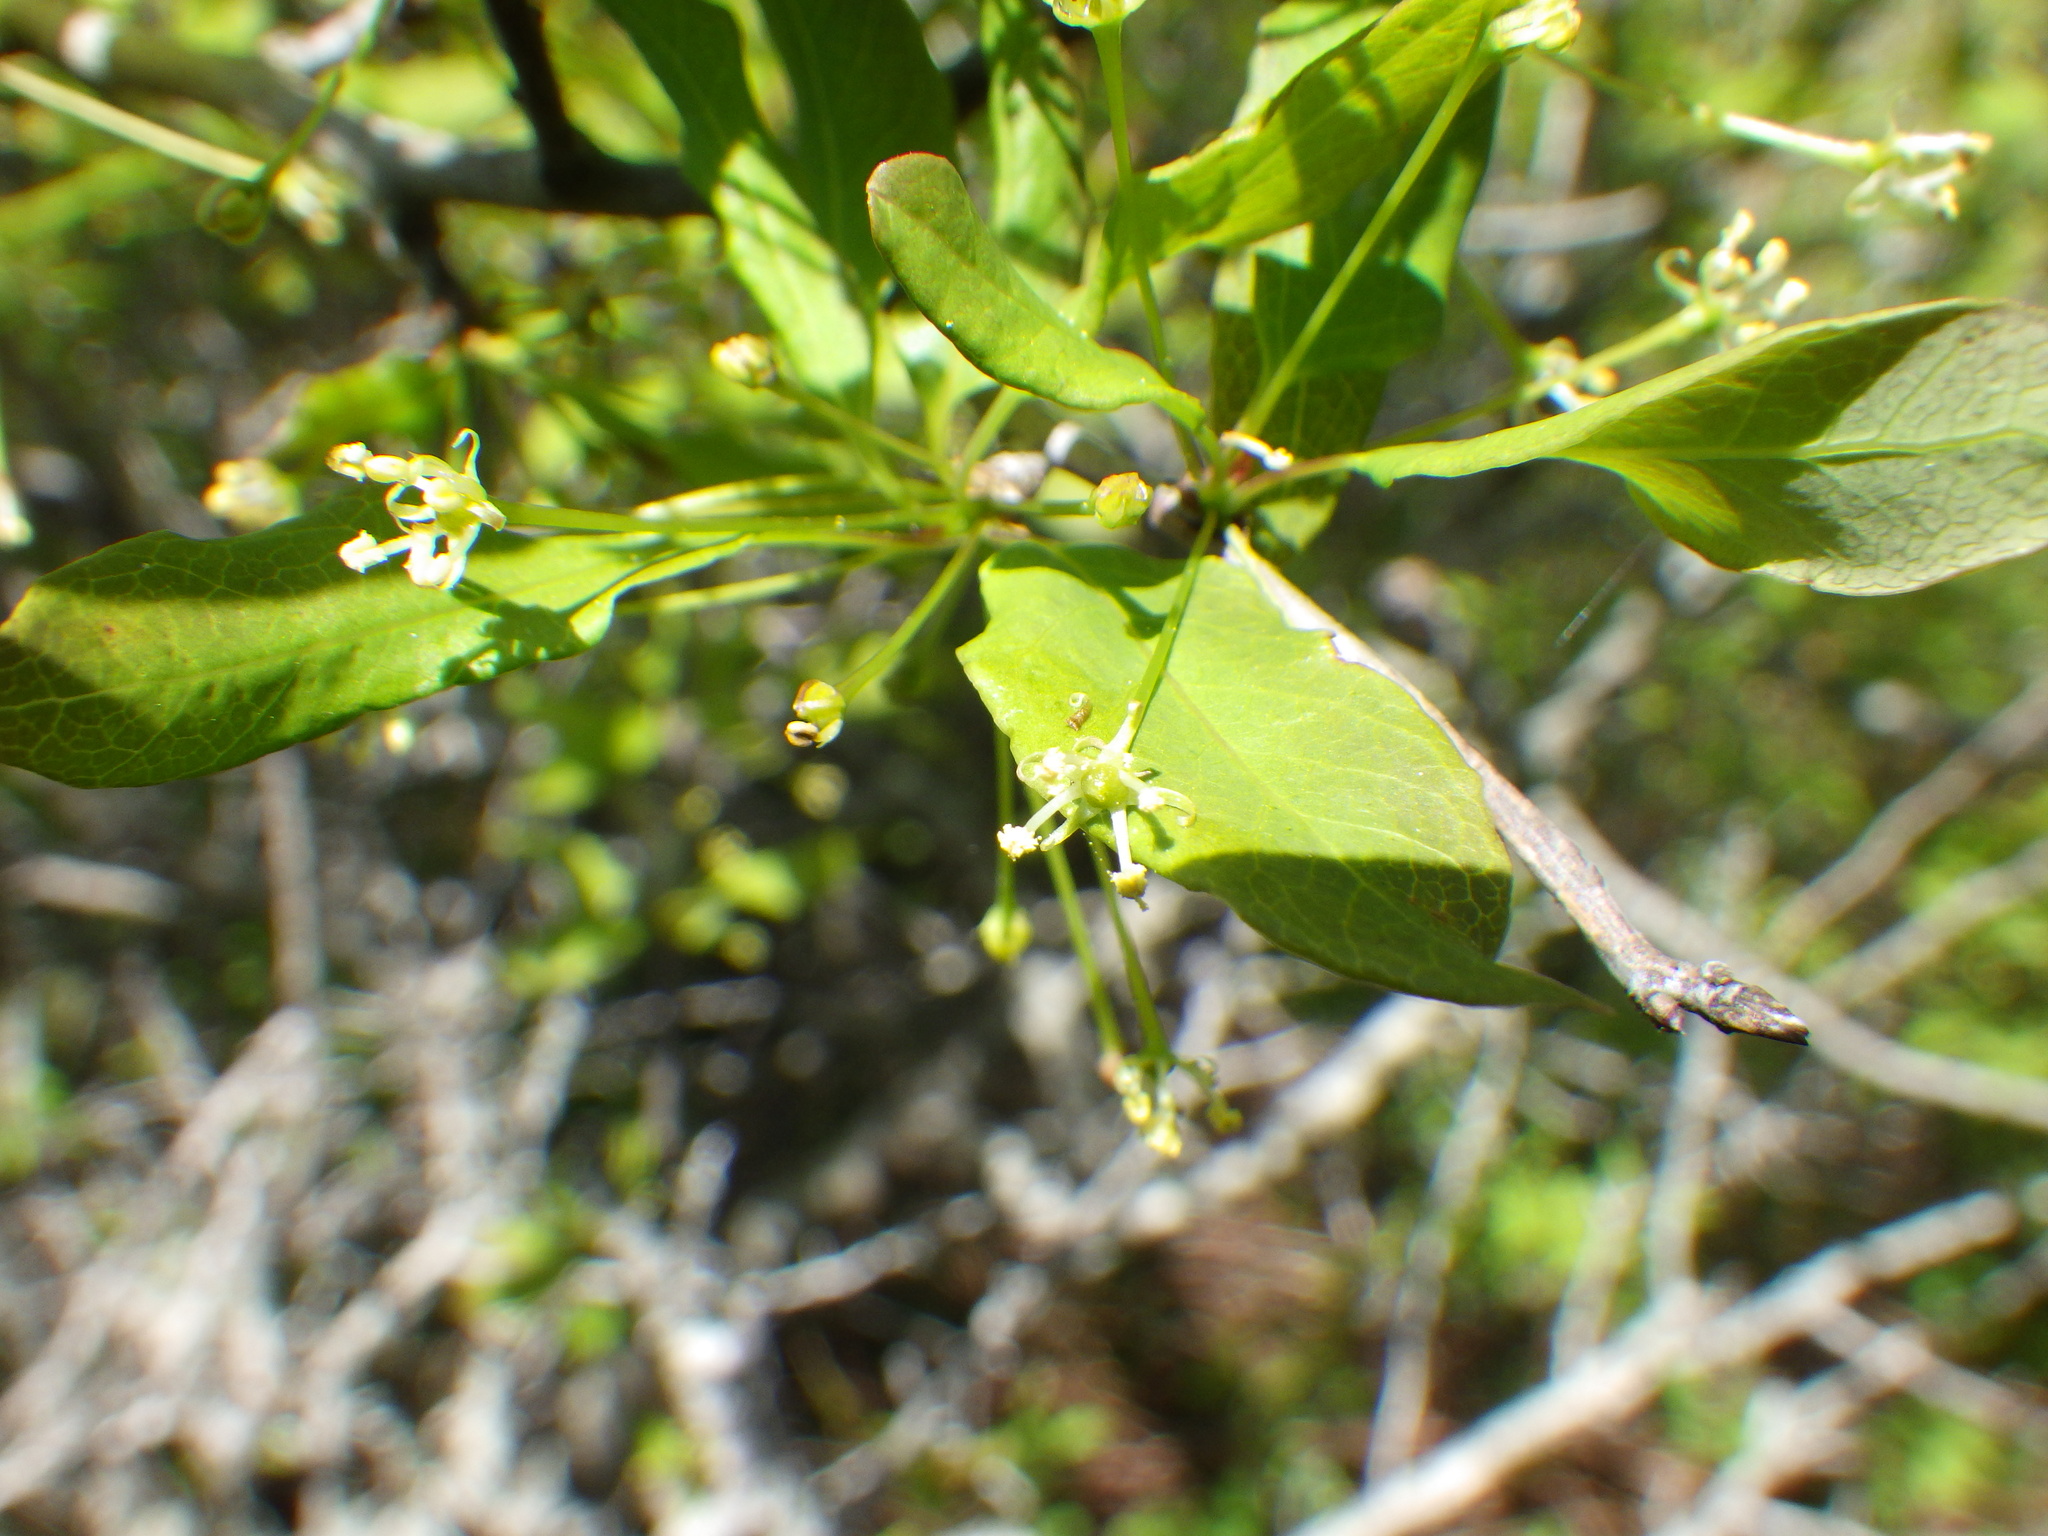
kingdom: Plantae
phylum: Tracheophyta
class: Magnoliopsida
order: Aquifoliales
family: Aquifoliaceae
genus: Ilex
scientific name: Ilex mucronata
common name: Catberry
